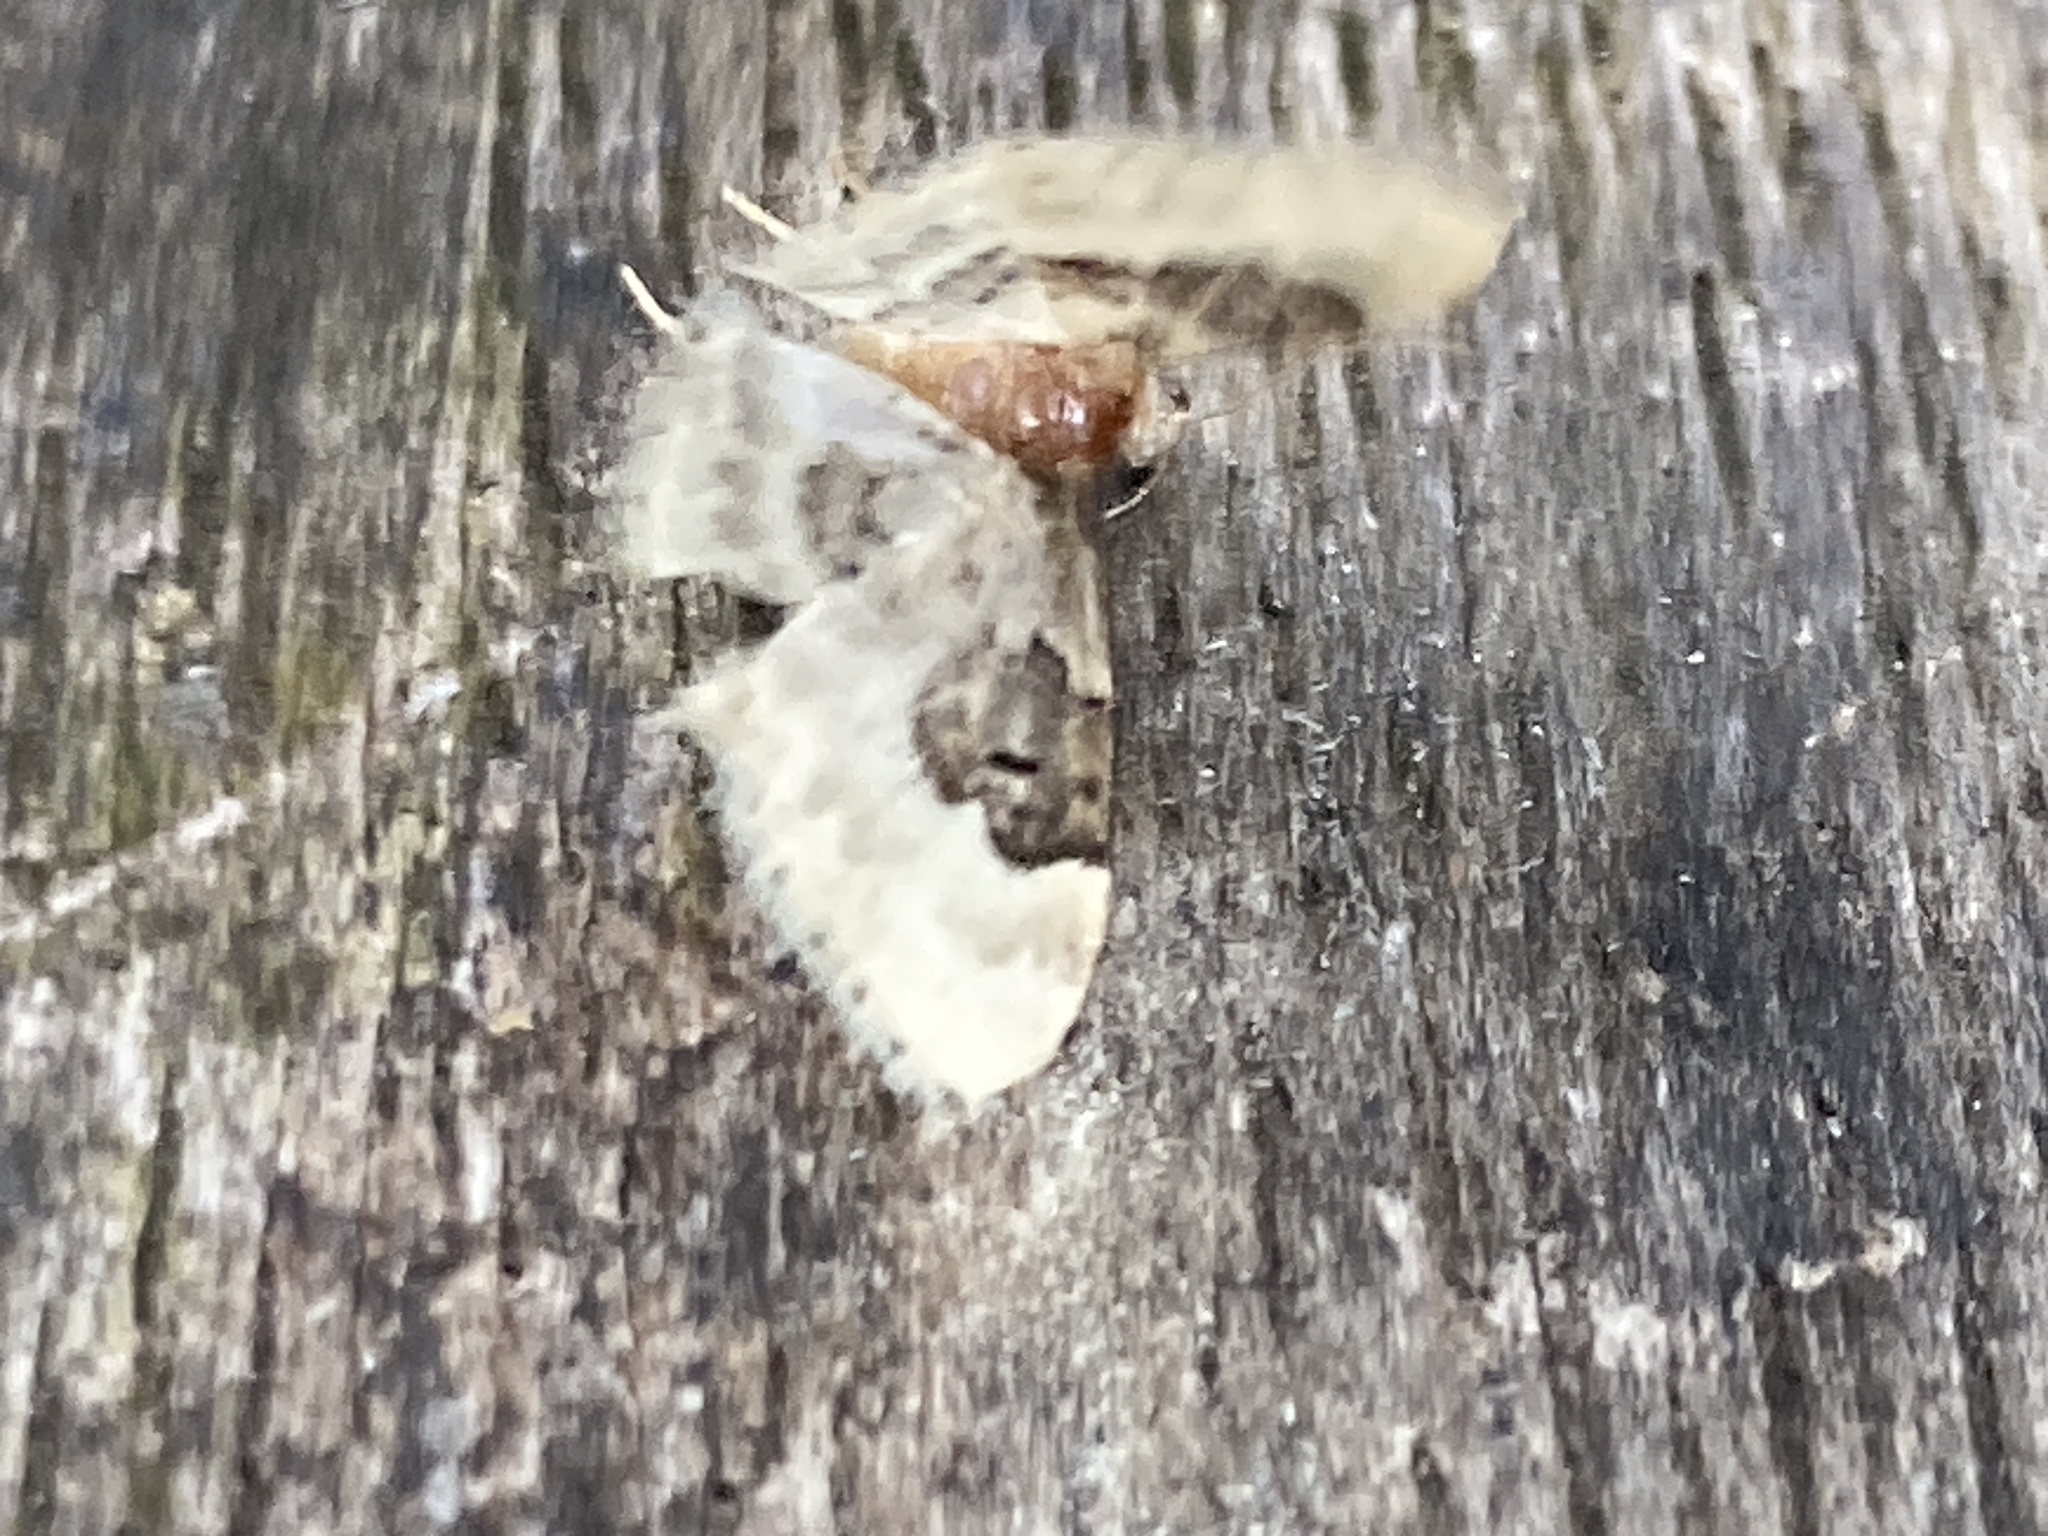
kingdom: Animalia
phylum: Arthropoda
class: Insecta
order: Lepidoptera
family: Geometridae
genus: Idaea
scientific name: Idaea rusticata
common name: Least carpet
